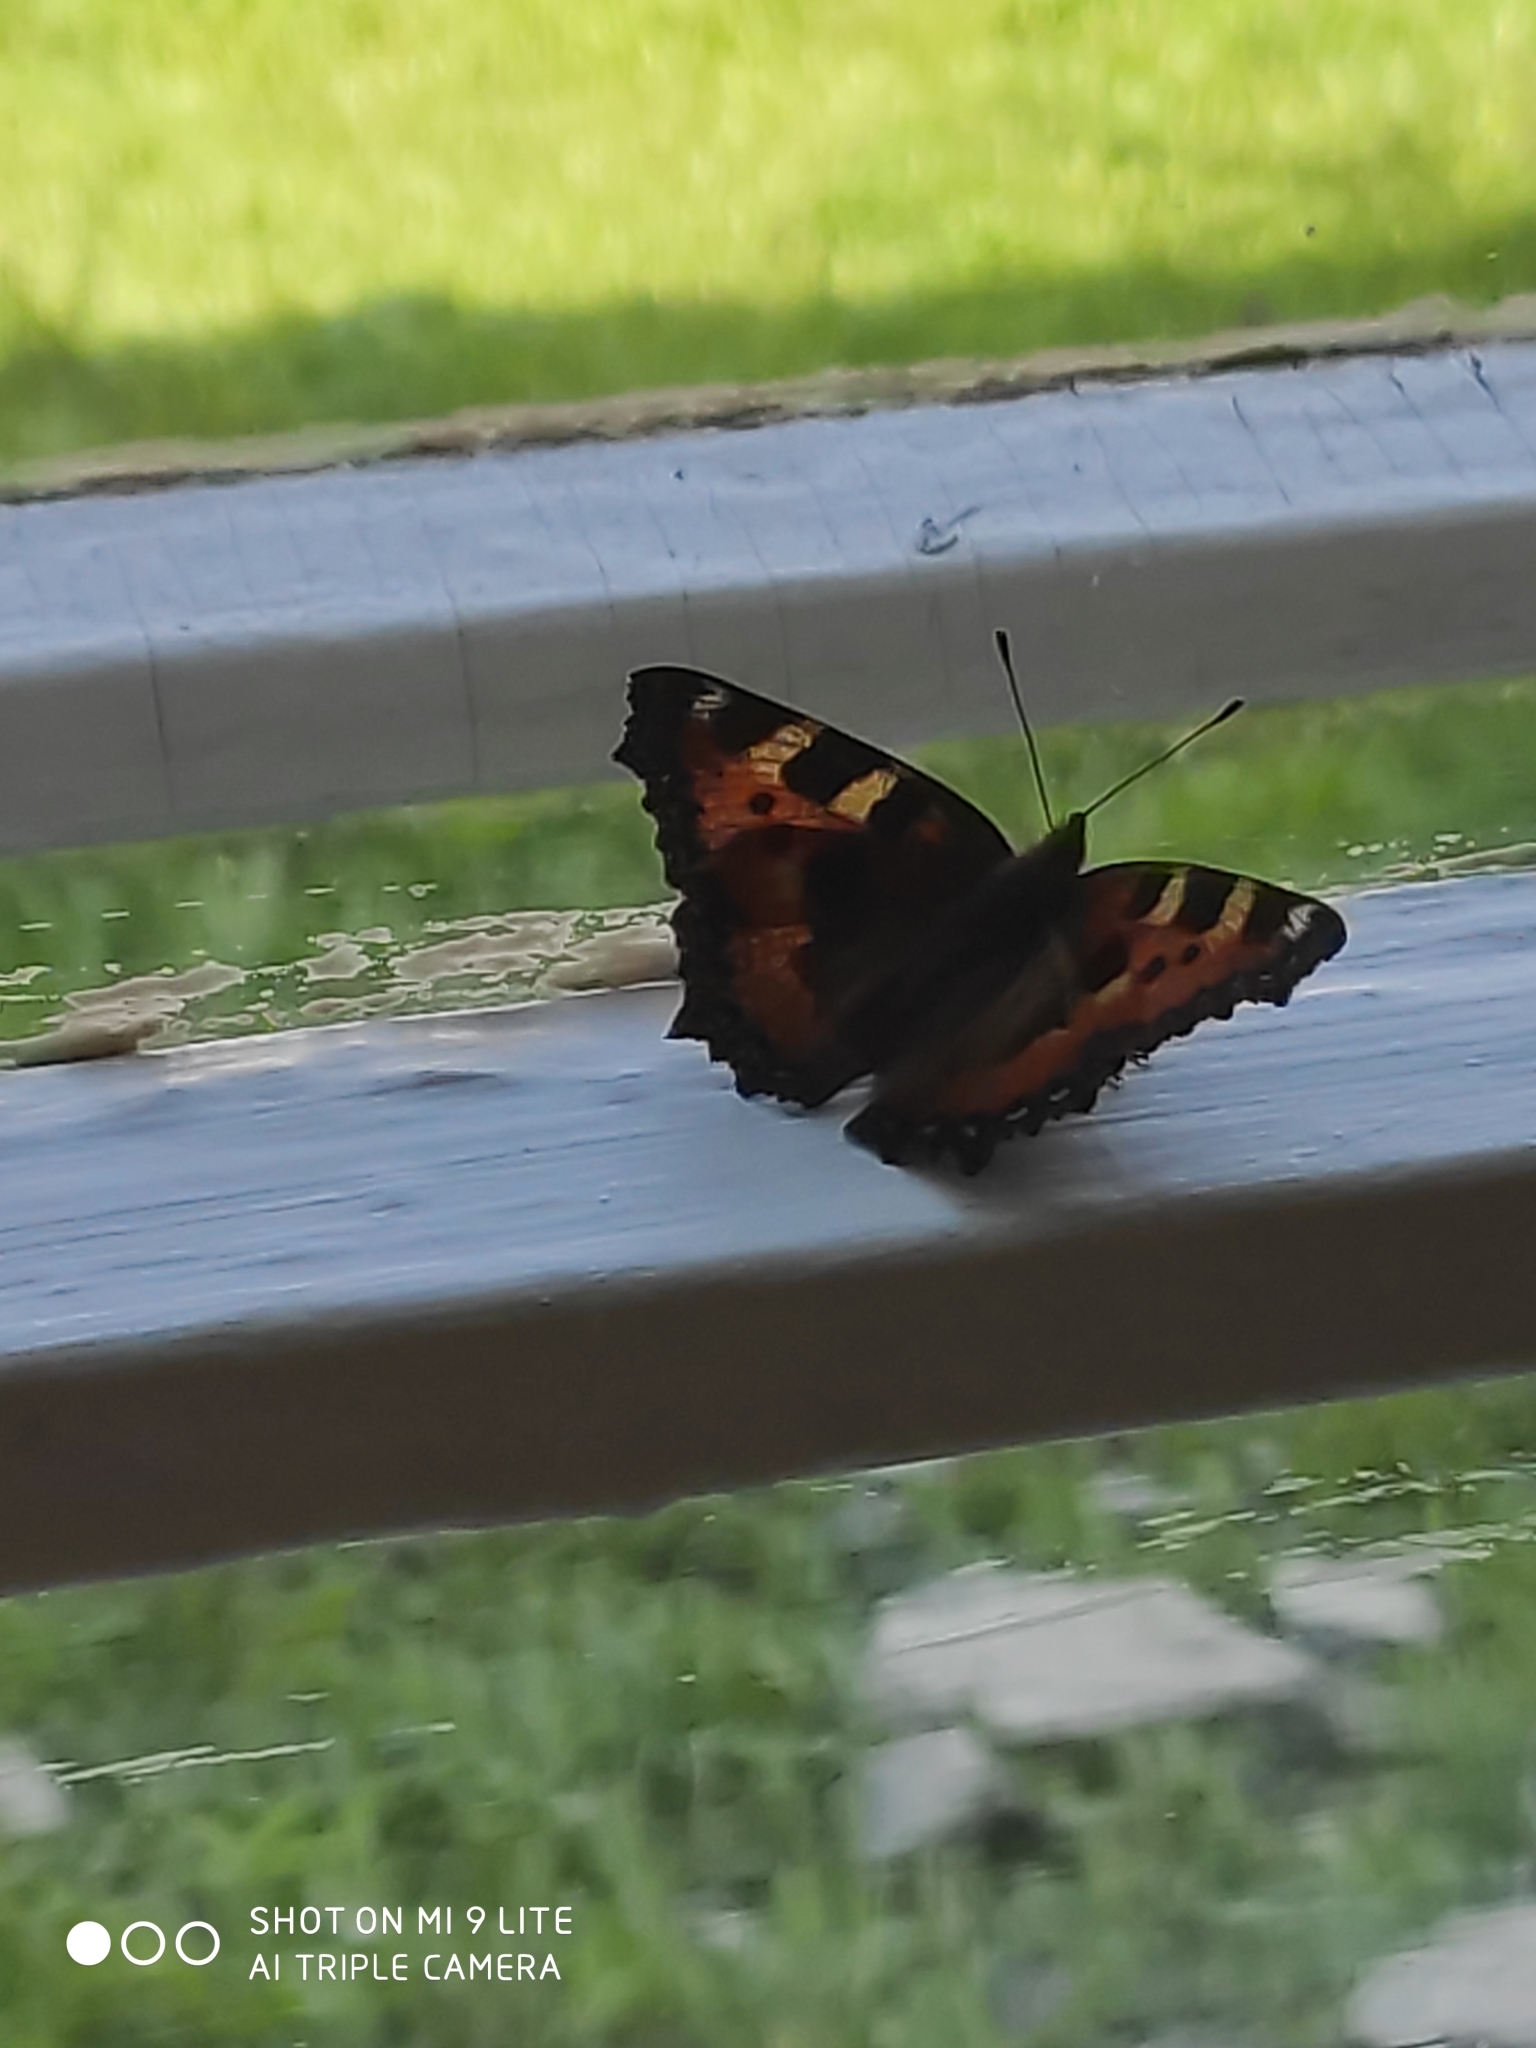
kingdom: Animalia
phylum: Arthropoda
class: Insecta
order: Lepidoptera
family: Nymphalidae
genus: Aglais
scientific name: Aglais urticae
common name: Small tortoiseshell
